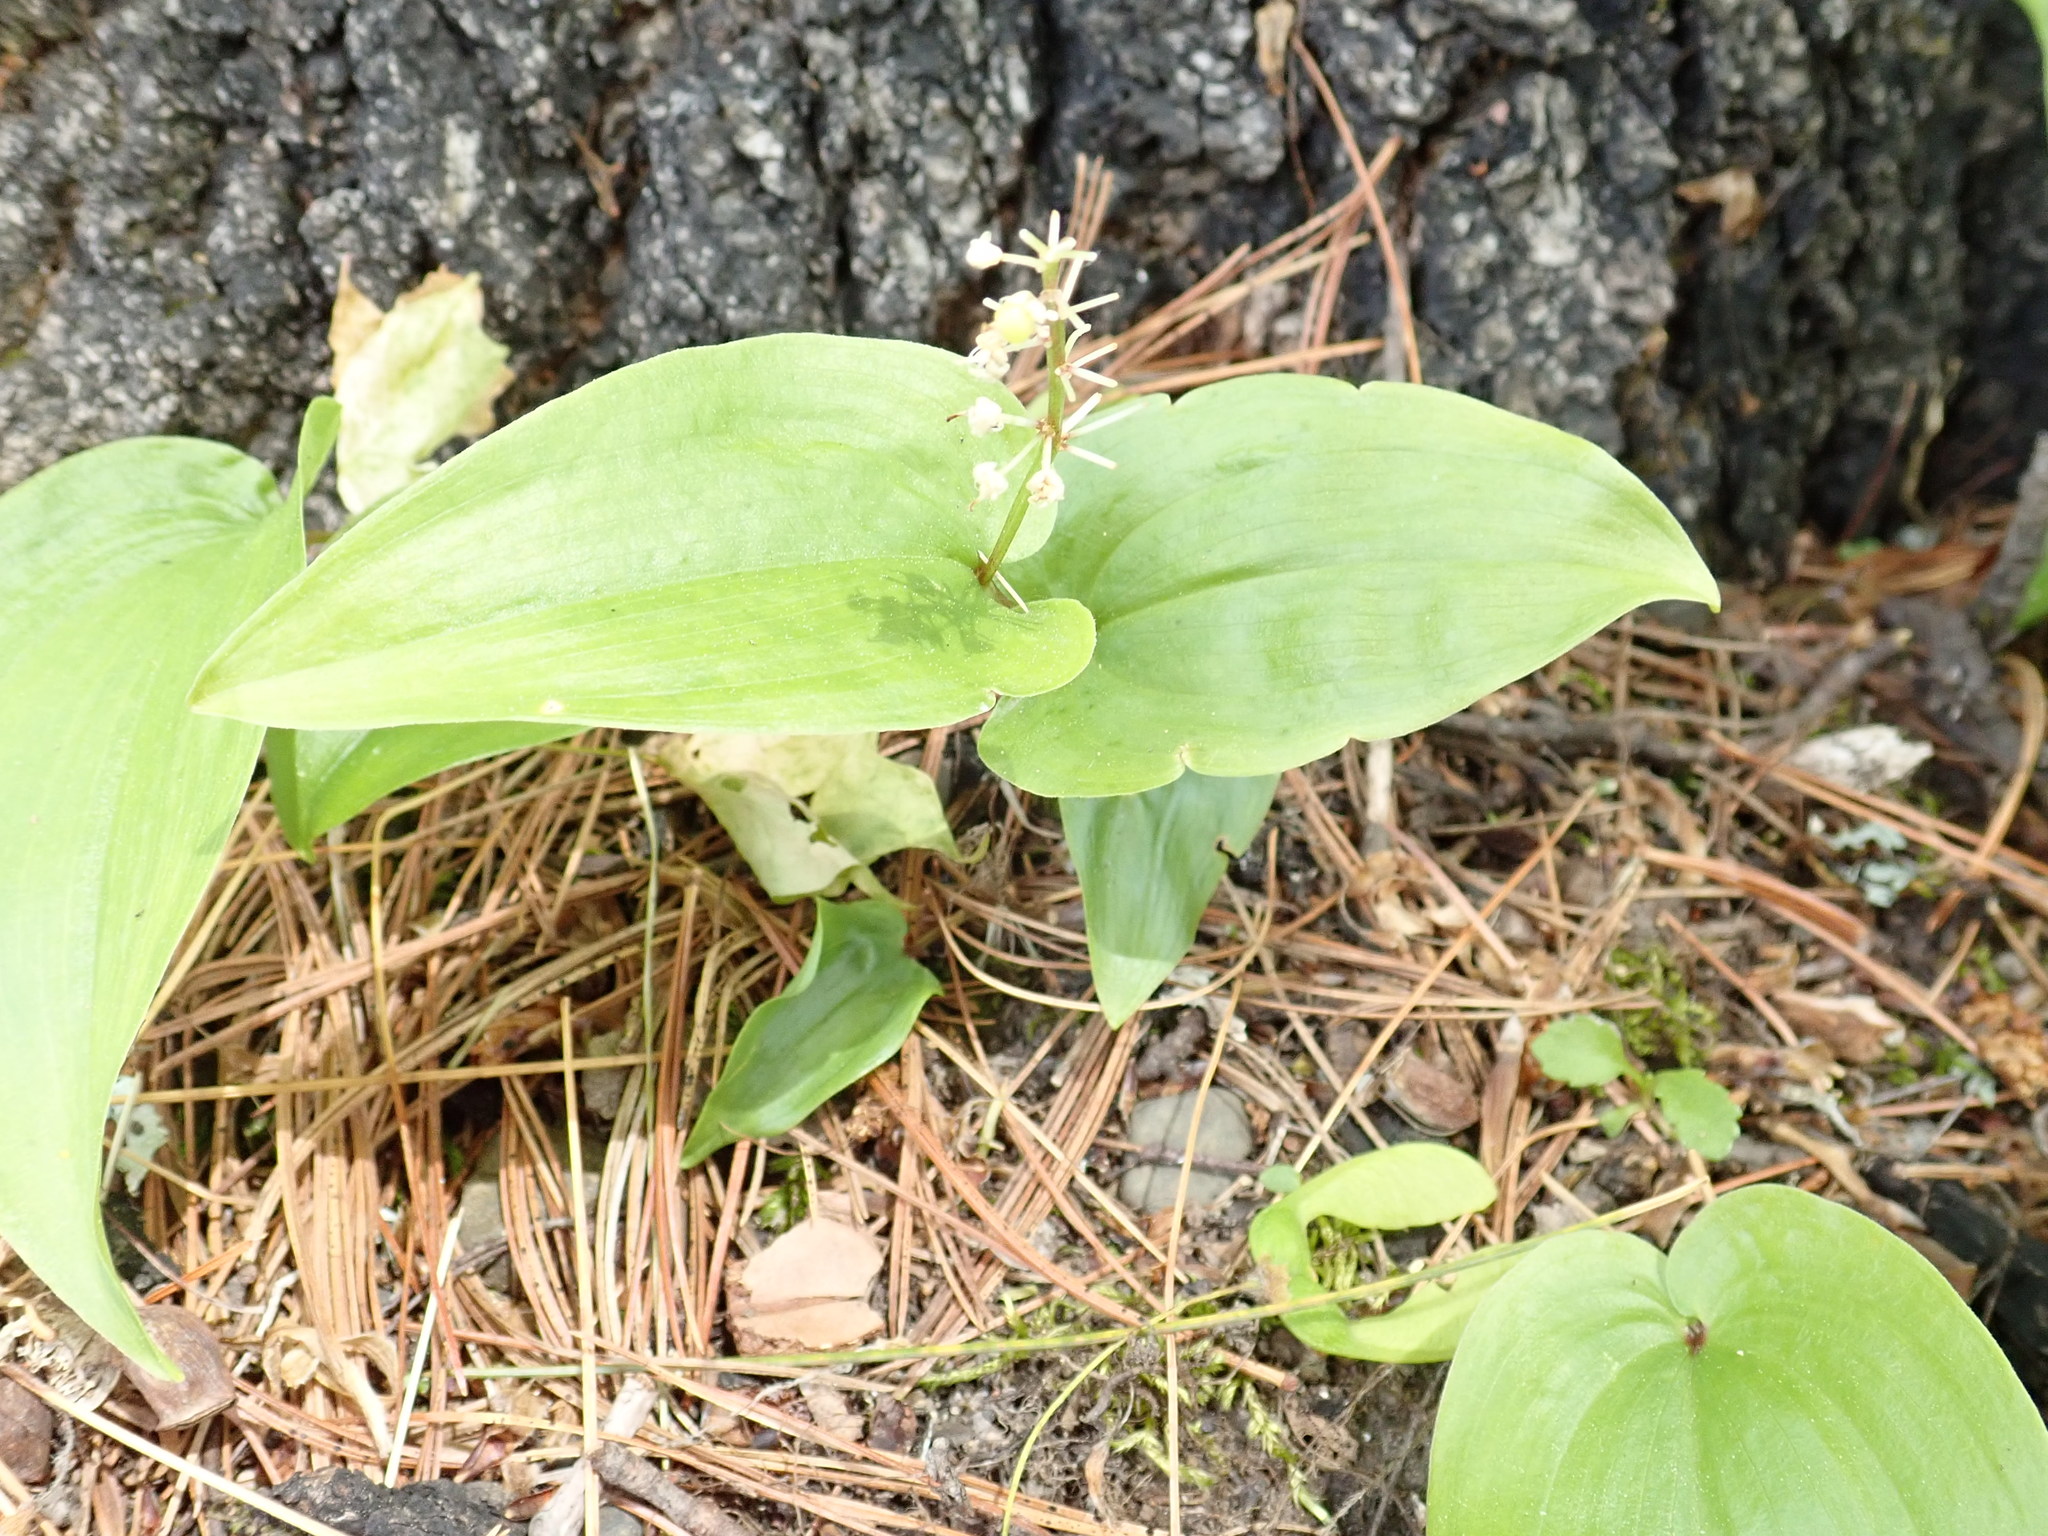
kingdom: Plantae
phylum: Tracheophyta
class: Liliopsida
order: Asparagales
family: Asparagaceae
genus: Maianthemum
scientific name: Maianthemum canadense
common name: False lily-of-the-valley
